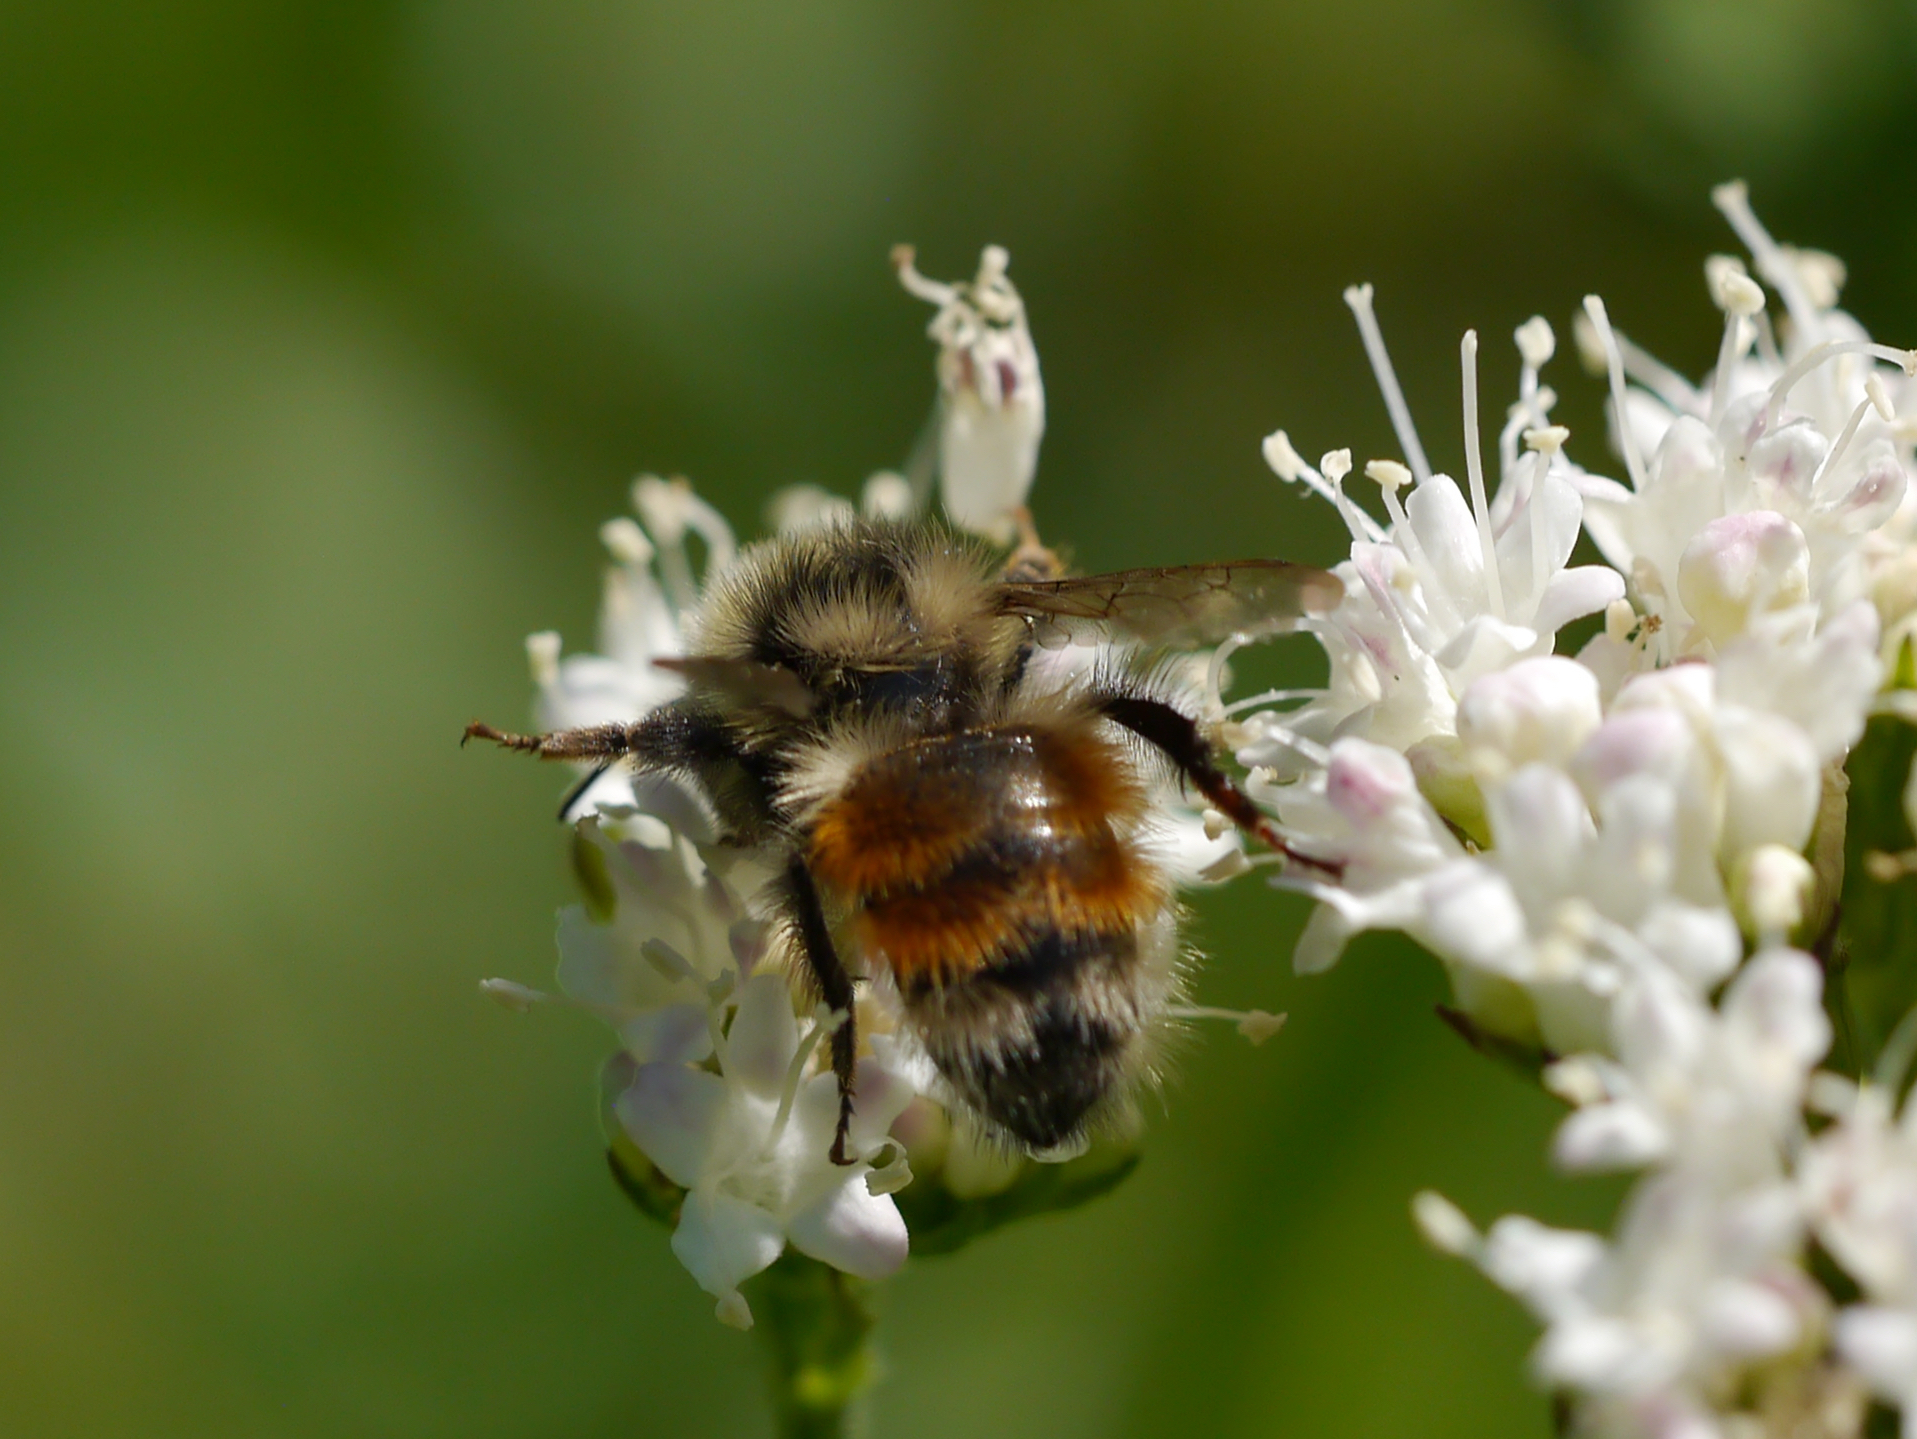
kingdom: Animalia
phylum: Arthropoda
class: Insecta
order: Hymenoptera
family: Apidae
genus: Bombus
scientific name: Bombus sylvicola
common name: Forest bumble bee
